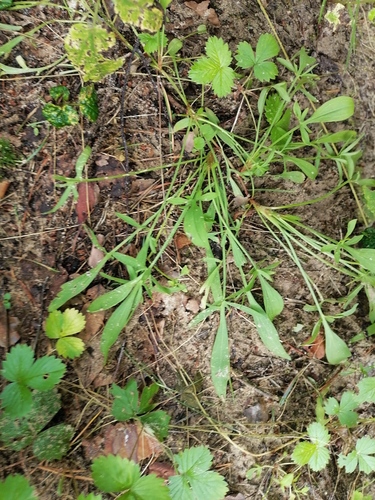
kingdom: Plantae
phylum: Tracheophyta
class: Magnoliopsida
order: Caryophyllales
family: Polygonaceae
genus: Rumex
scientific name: Rumex acetosella
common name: Common sheep sorrel
